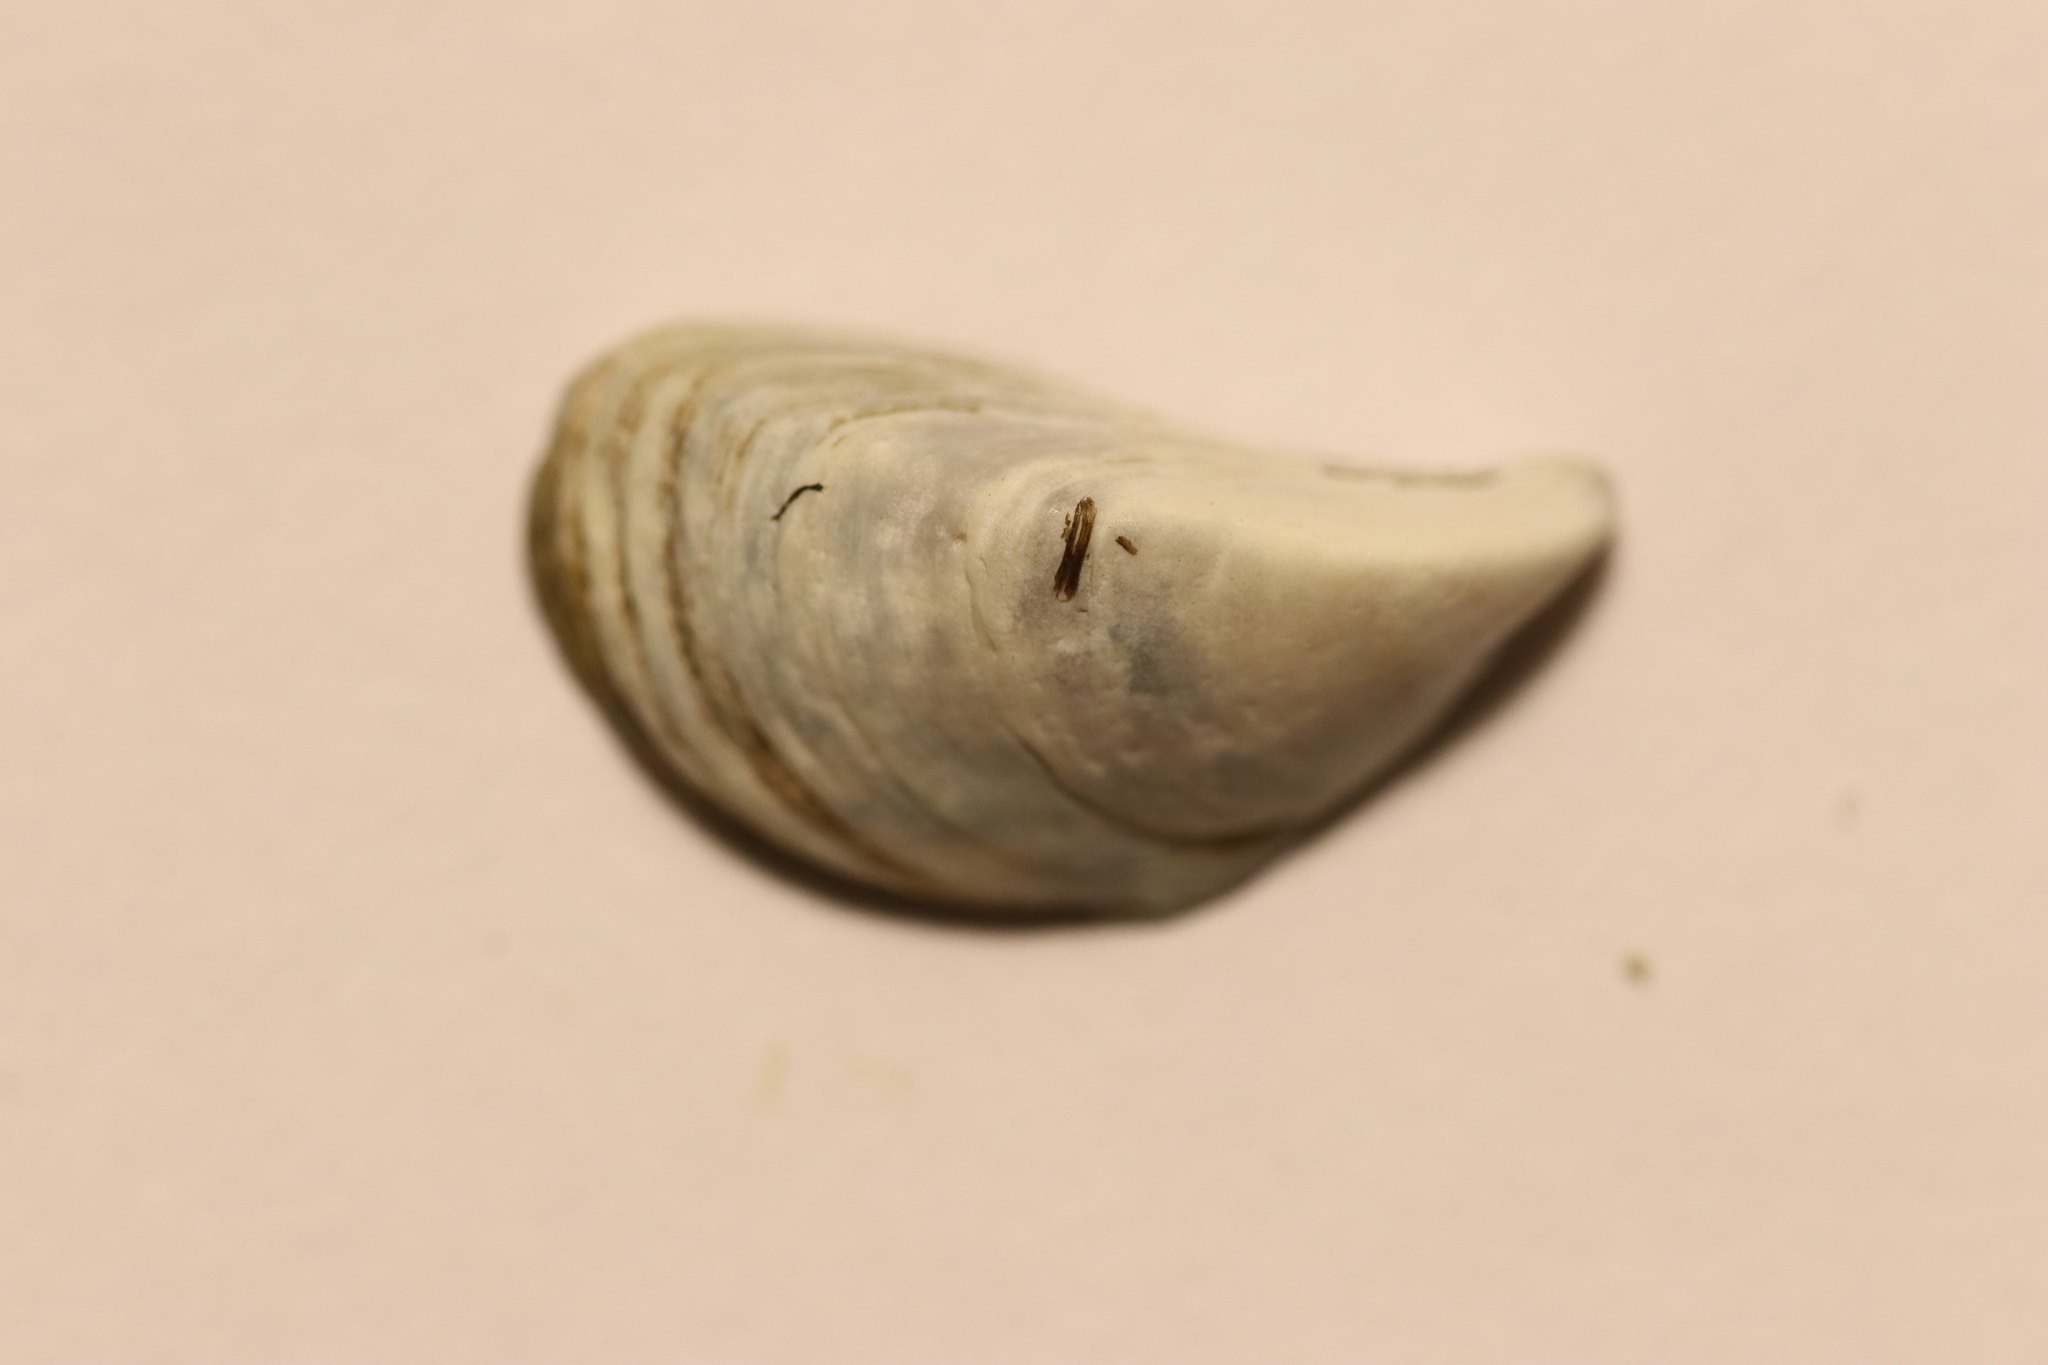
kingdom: Animalia
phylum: Mollusca
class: Bivalvia
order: Myida
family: Dreissenidae
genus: Dreissena
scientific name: Dreissena polymorpha
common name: Zebra mussel
